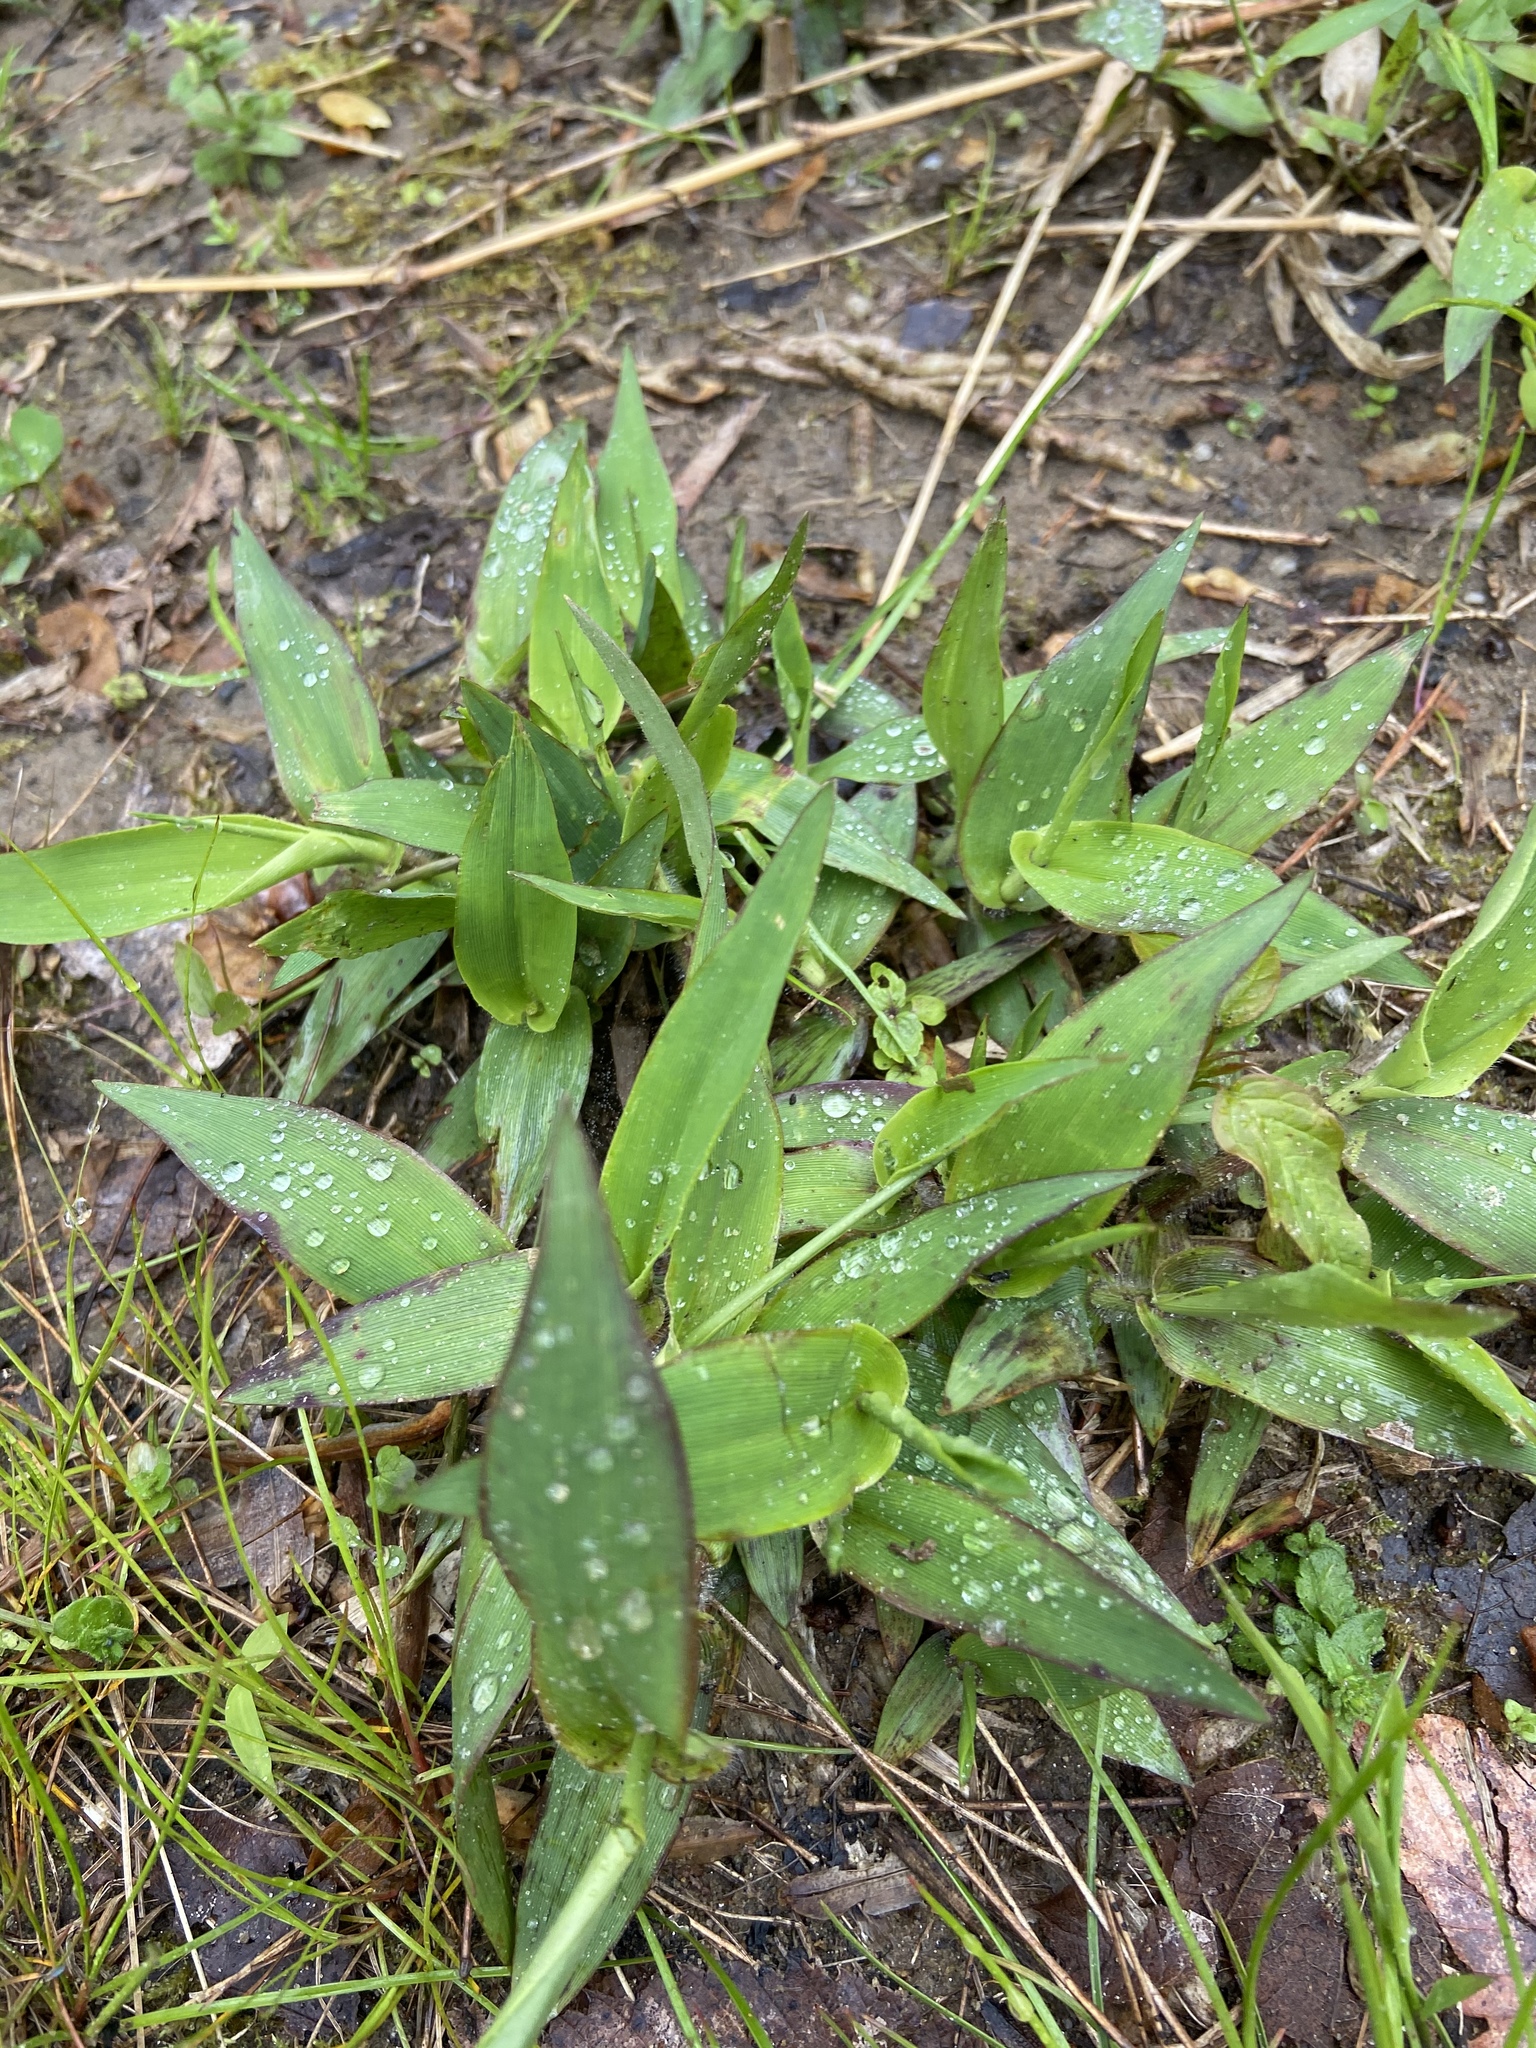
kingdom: Plantae
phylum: Tracheophyta
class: Liliopsida
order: Poales
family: Poaceae
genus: Dichanthelium
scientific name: Dichanthelium clandestinum
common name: Deer-tongue grass
